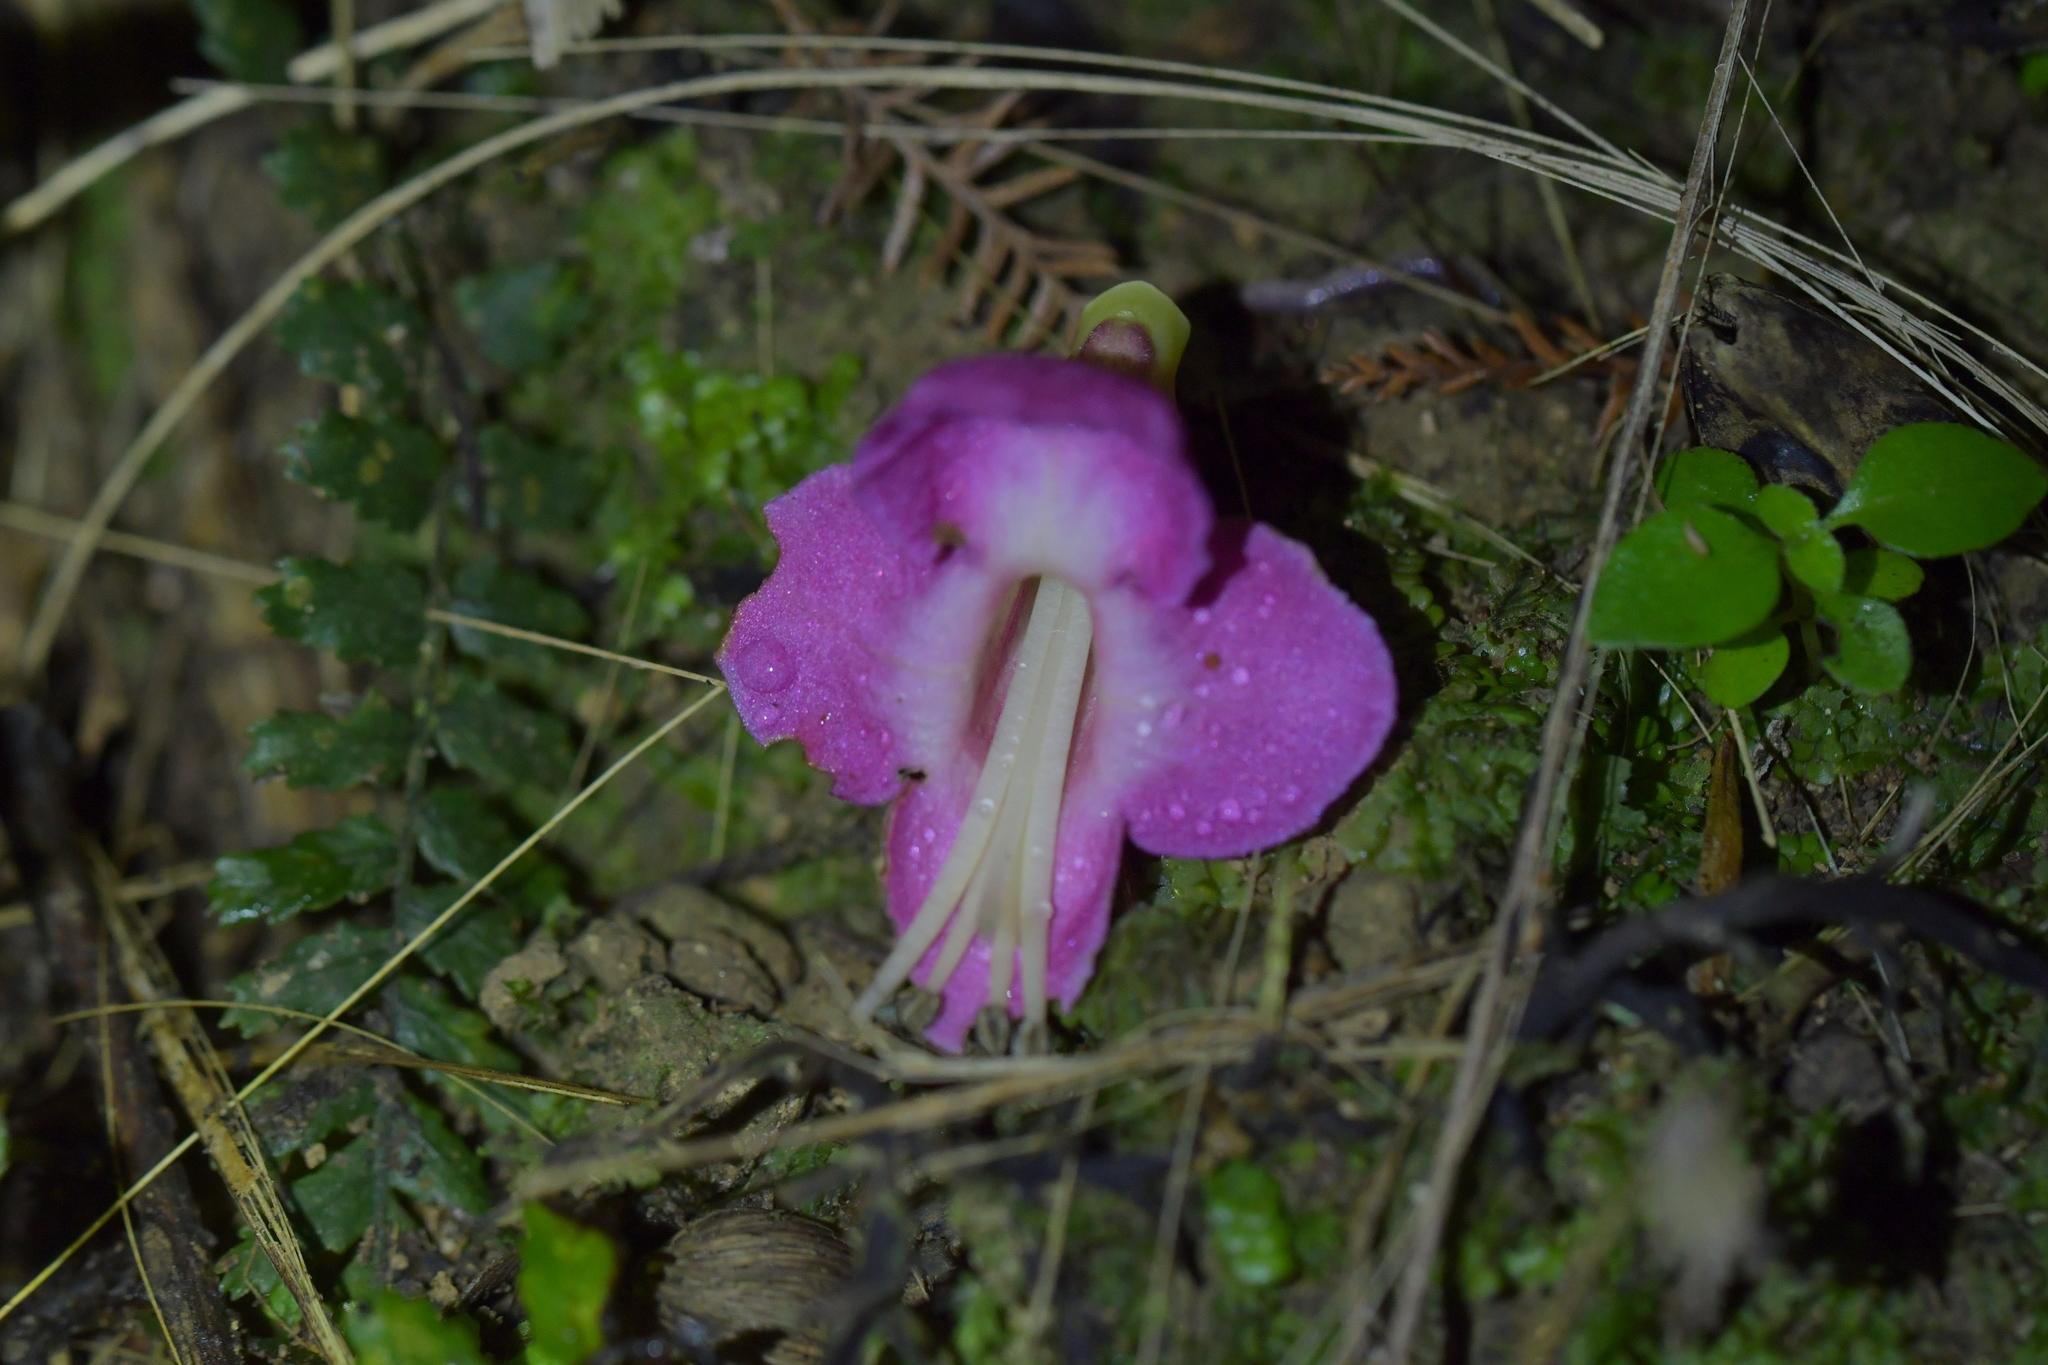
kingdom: Plantae
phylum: Tracheophyta
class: Magnoliopsida
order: Lamiales
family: Lamiaceae
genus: Vitex
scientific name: Vitex lucens
